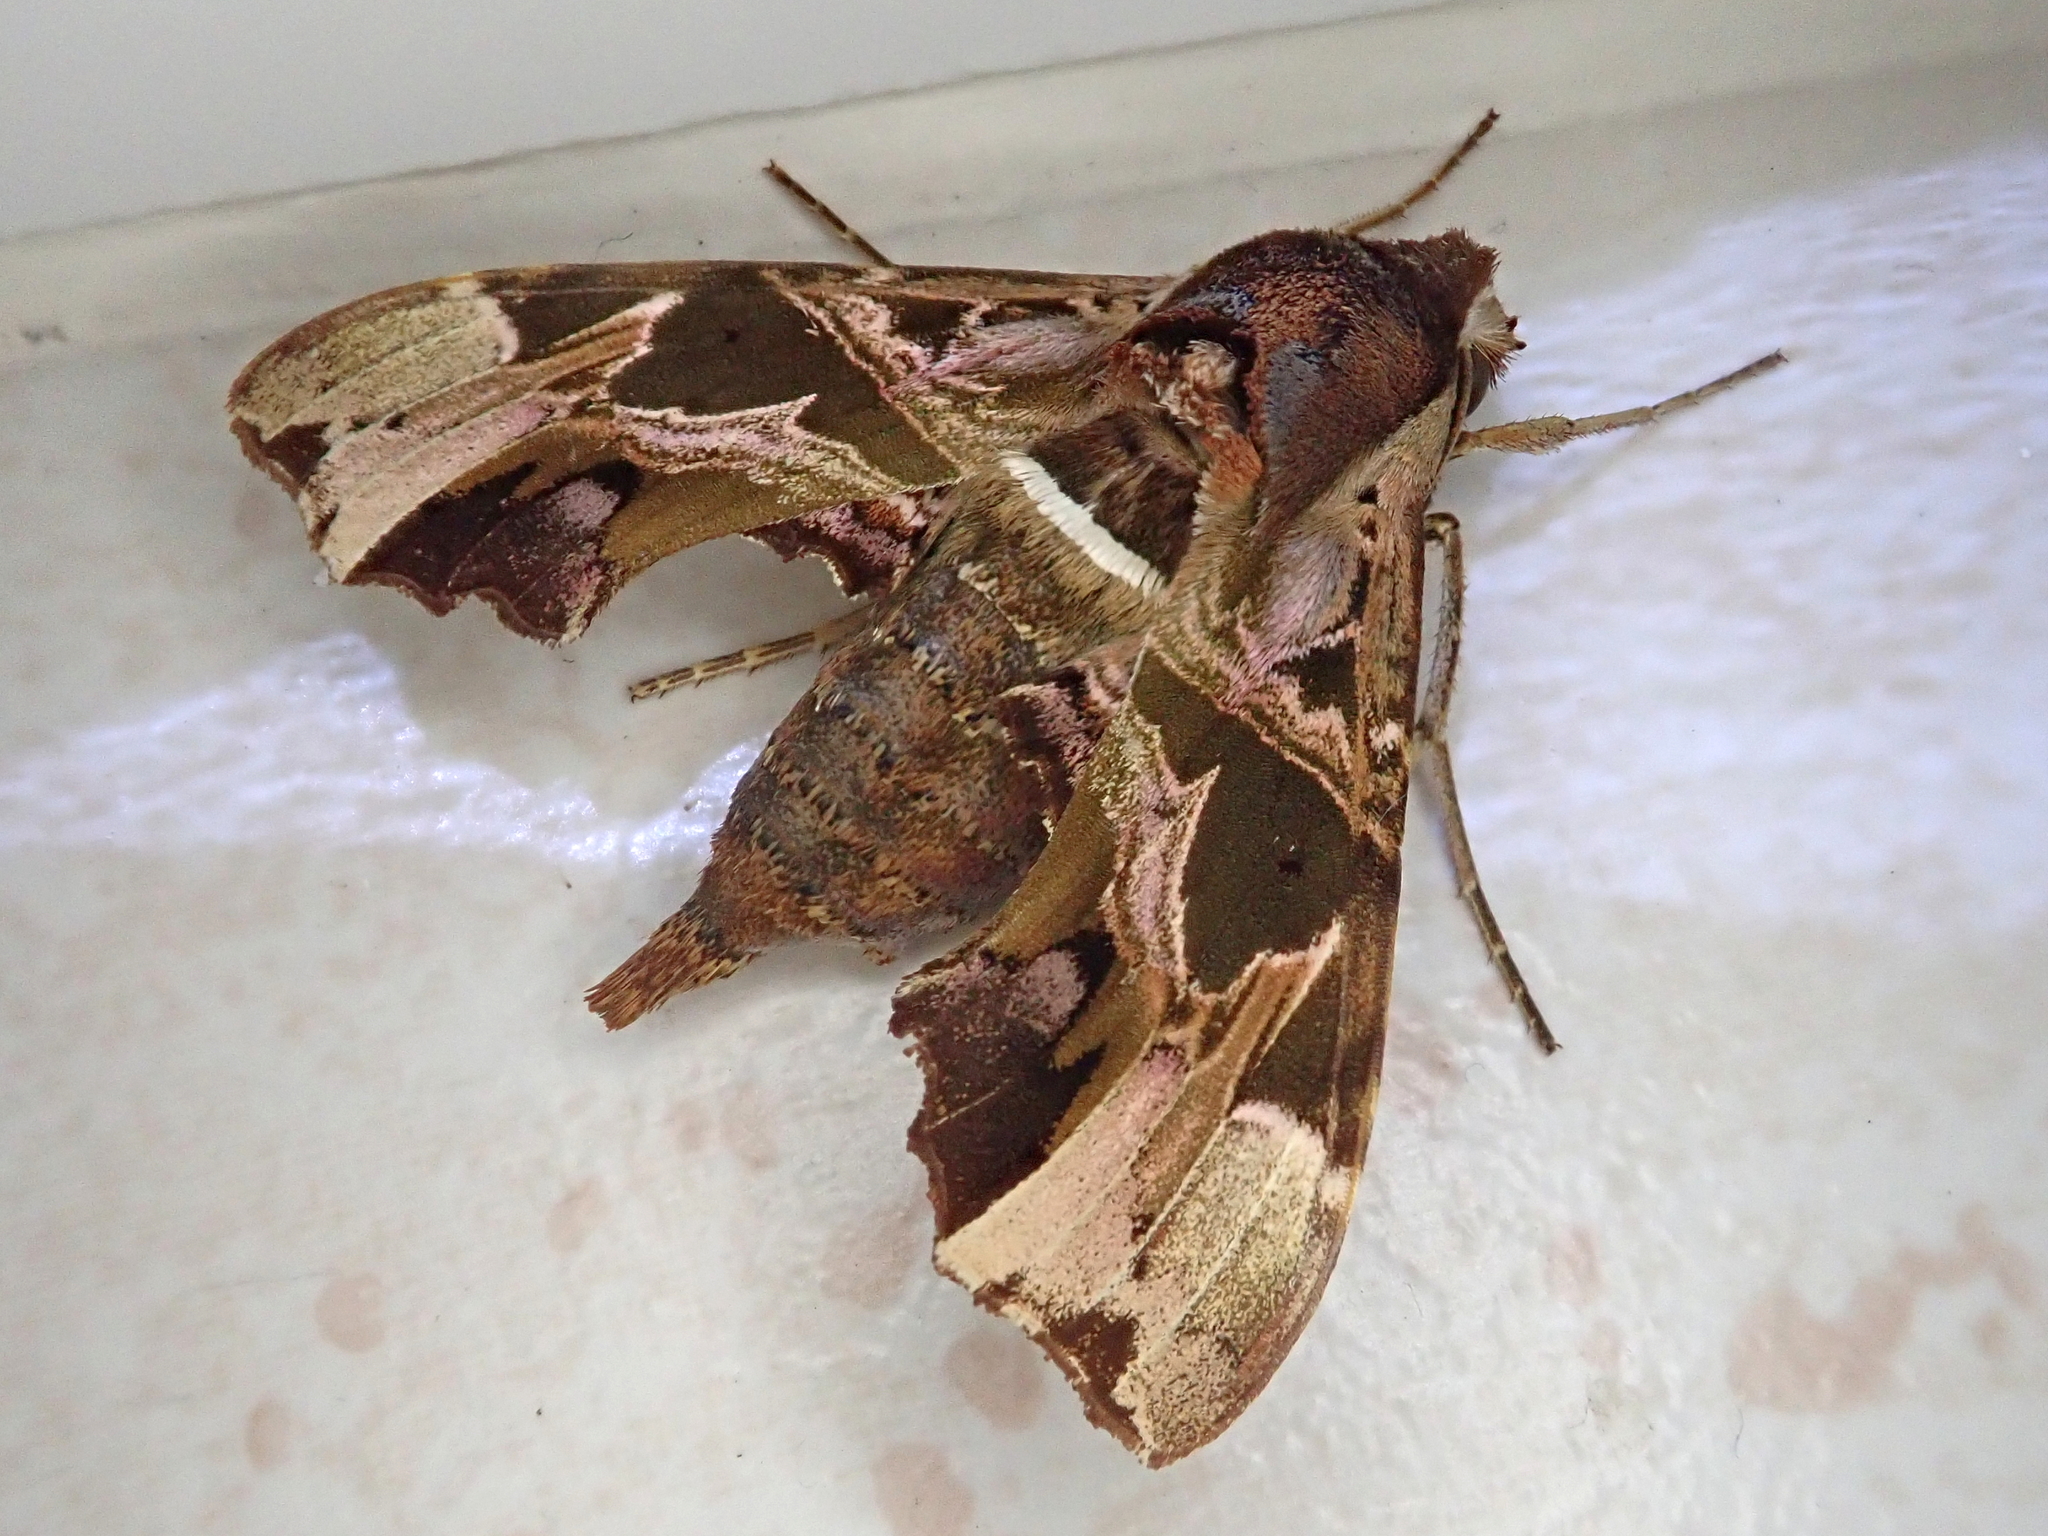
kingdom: Animalia
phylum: Arthropoda
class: Insecta
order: Lepidoptera
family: Sphingidae
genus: Unzela
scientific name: Unzela japix
